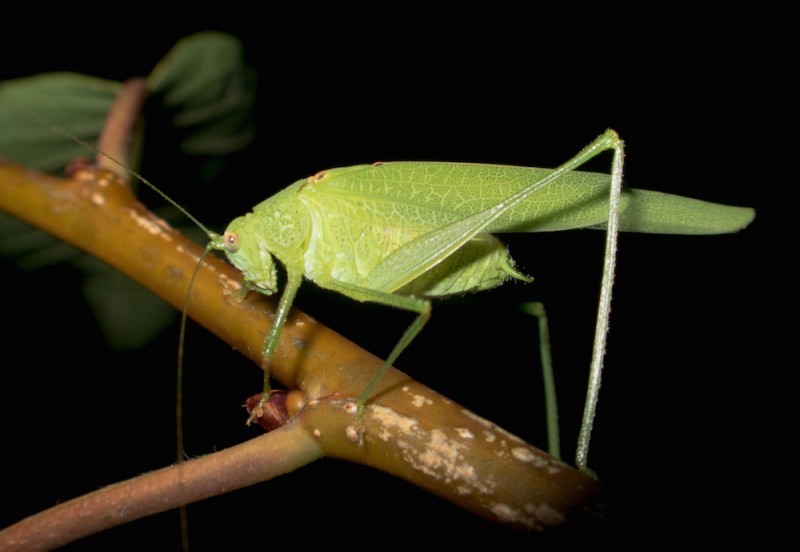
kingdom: Animalia
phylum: Arthropoda
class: Insecta
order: Orthoptera
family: Tettigoniidae
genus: Phaneroptera
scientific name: Phaneroptera nana
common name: Southern sickle bush-cricket
